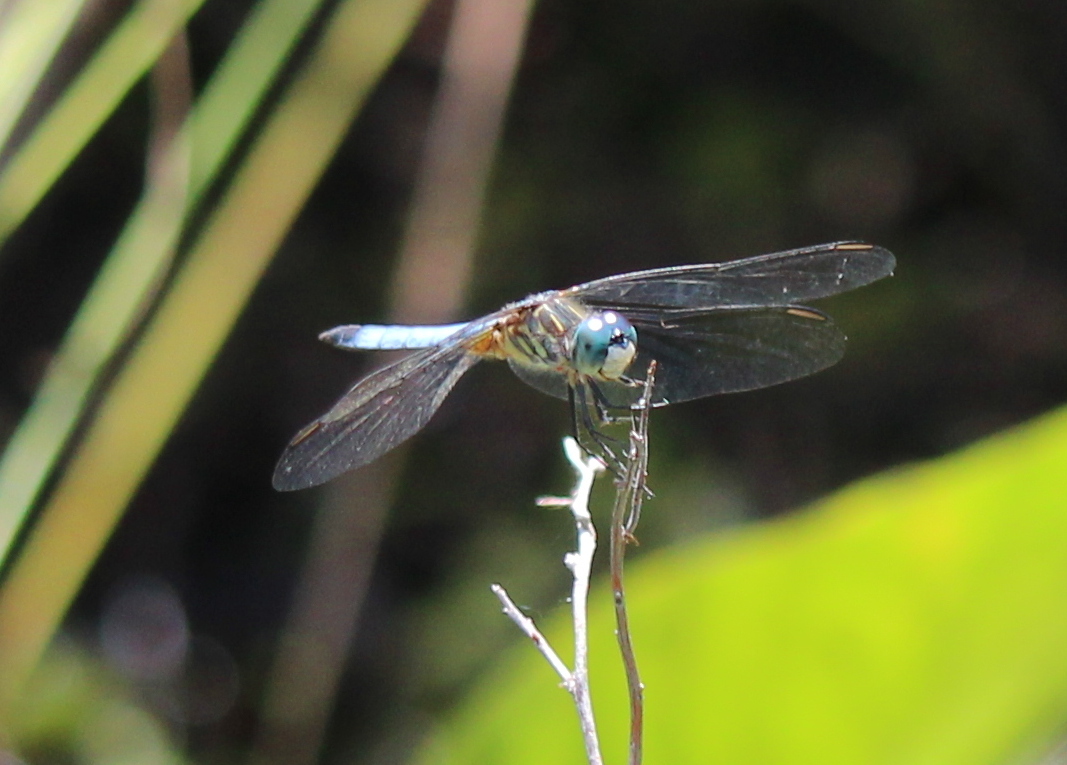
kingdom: Animalia
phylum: Arthropoda
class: Insecta
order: Odonata
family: Libellulidae
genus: Pachydiplax
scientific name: Pachydiplax longipennis
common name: Blue dasher
